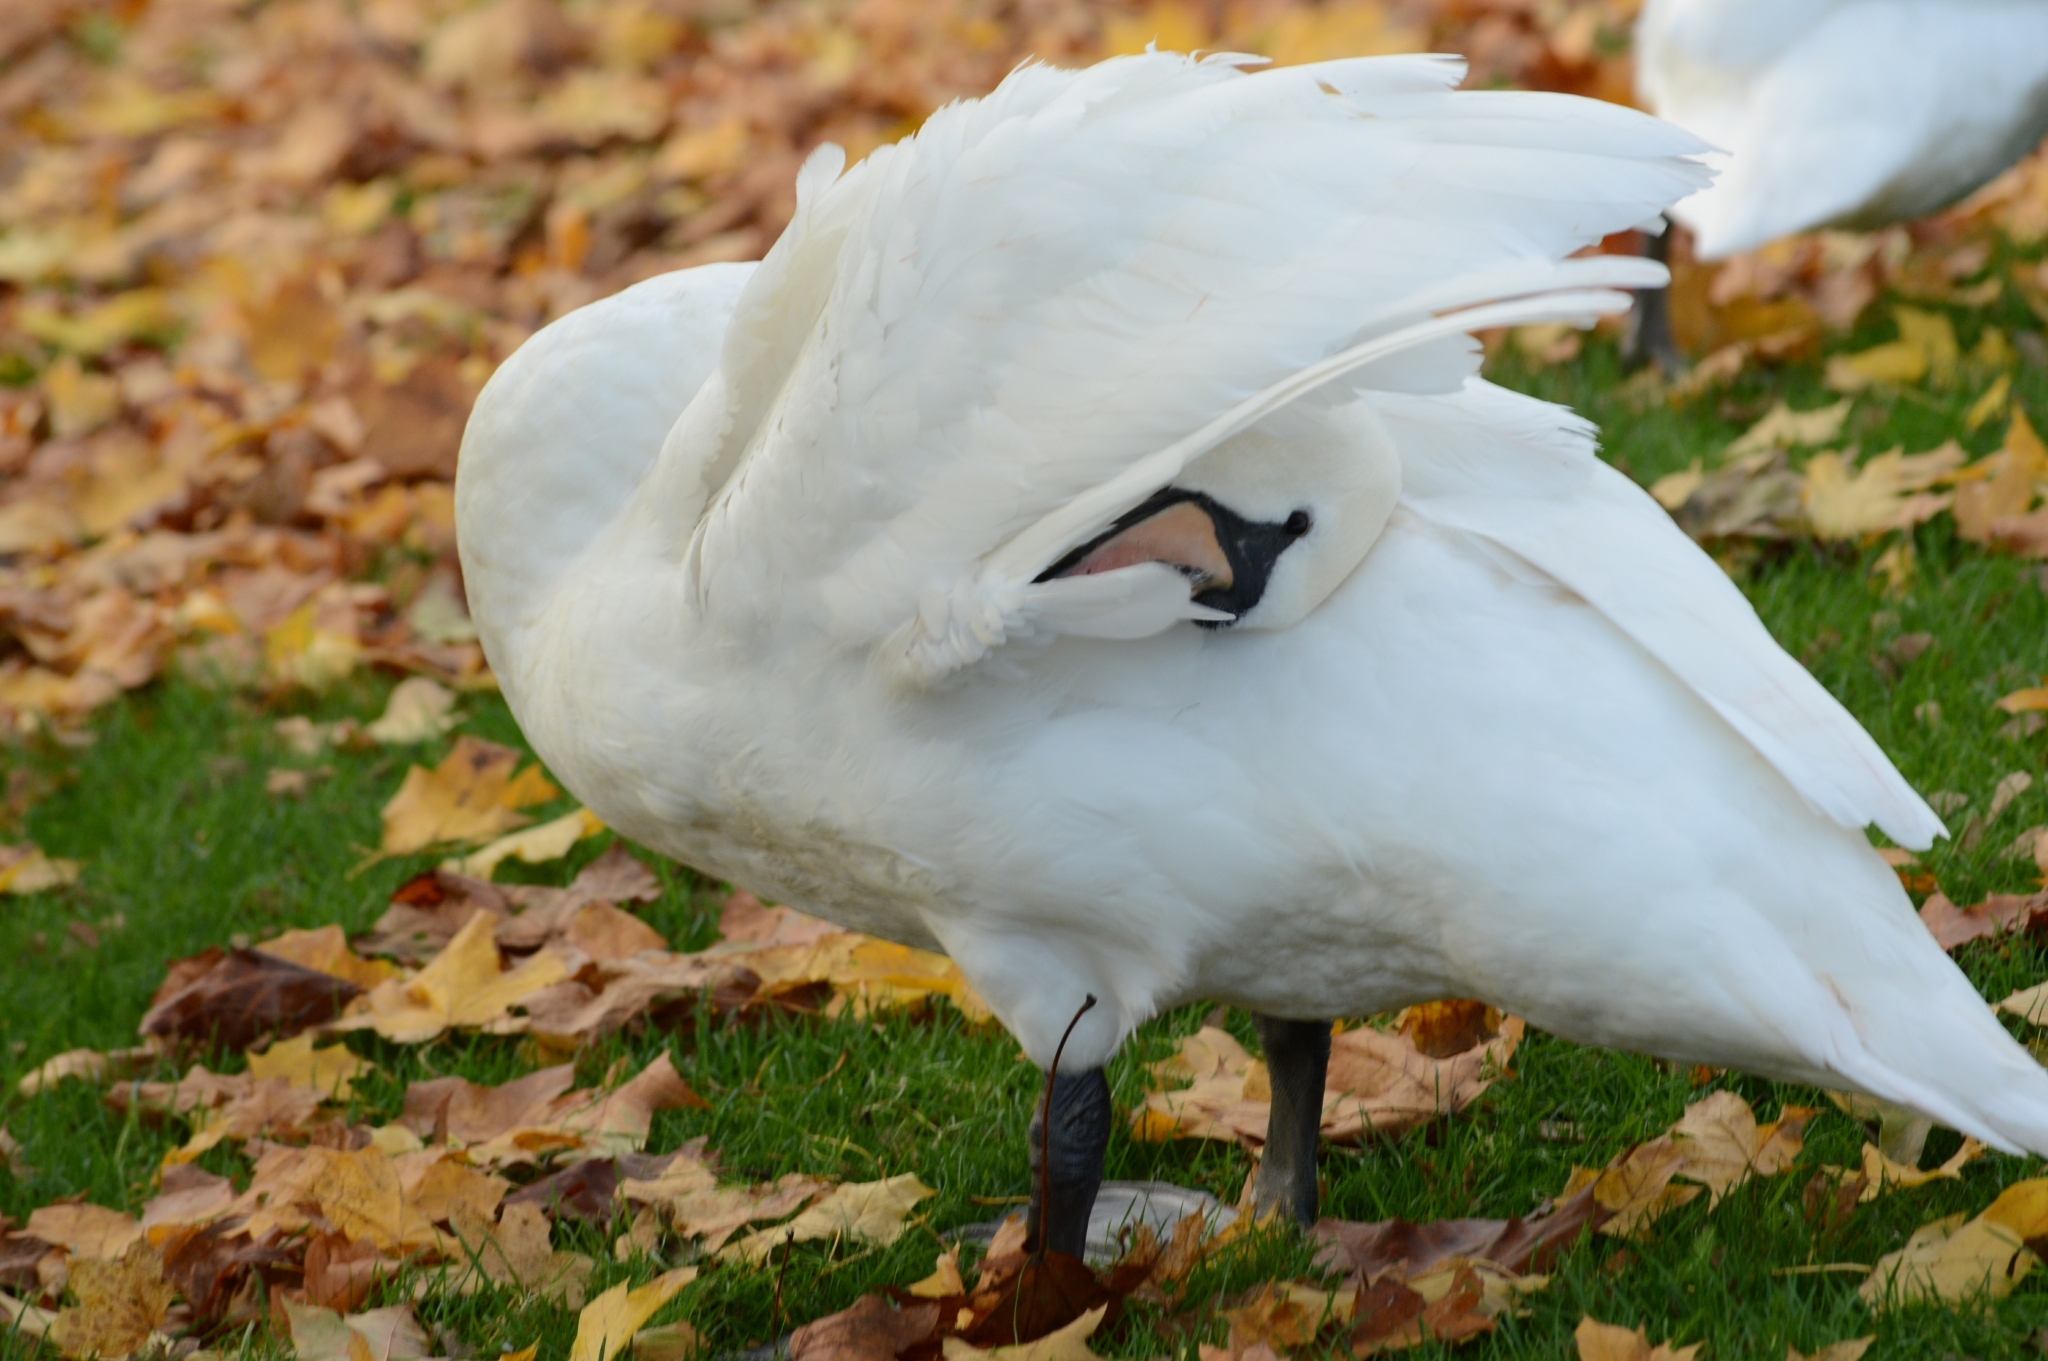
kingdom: Animalia
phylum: Chordata
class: Aves
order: Anseriformes
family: Anatidae
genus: Cygnus
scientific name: Cygnus olor
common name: Mute swan
